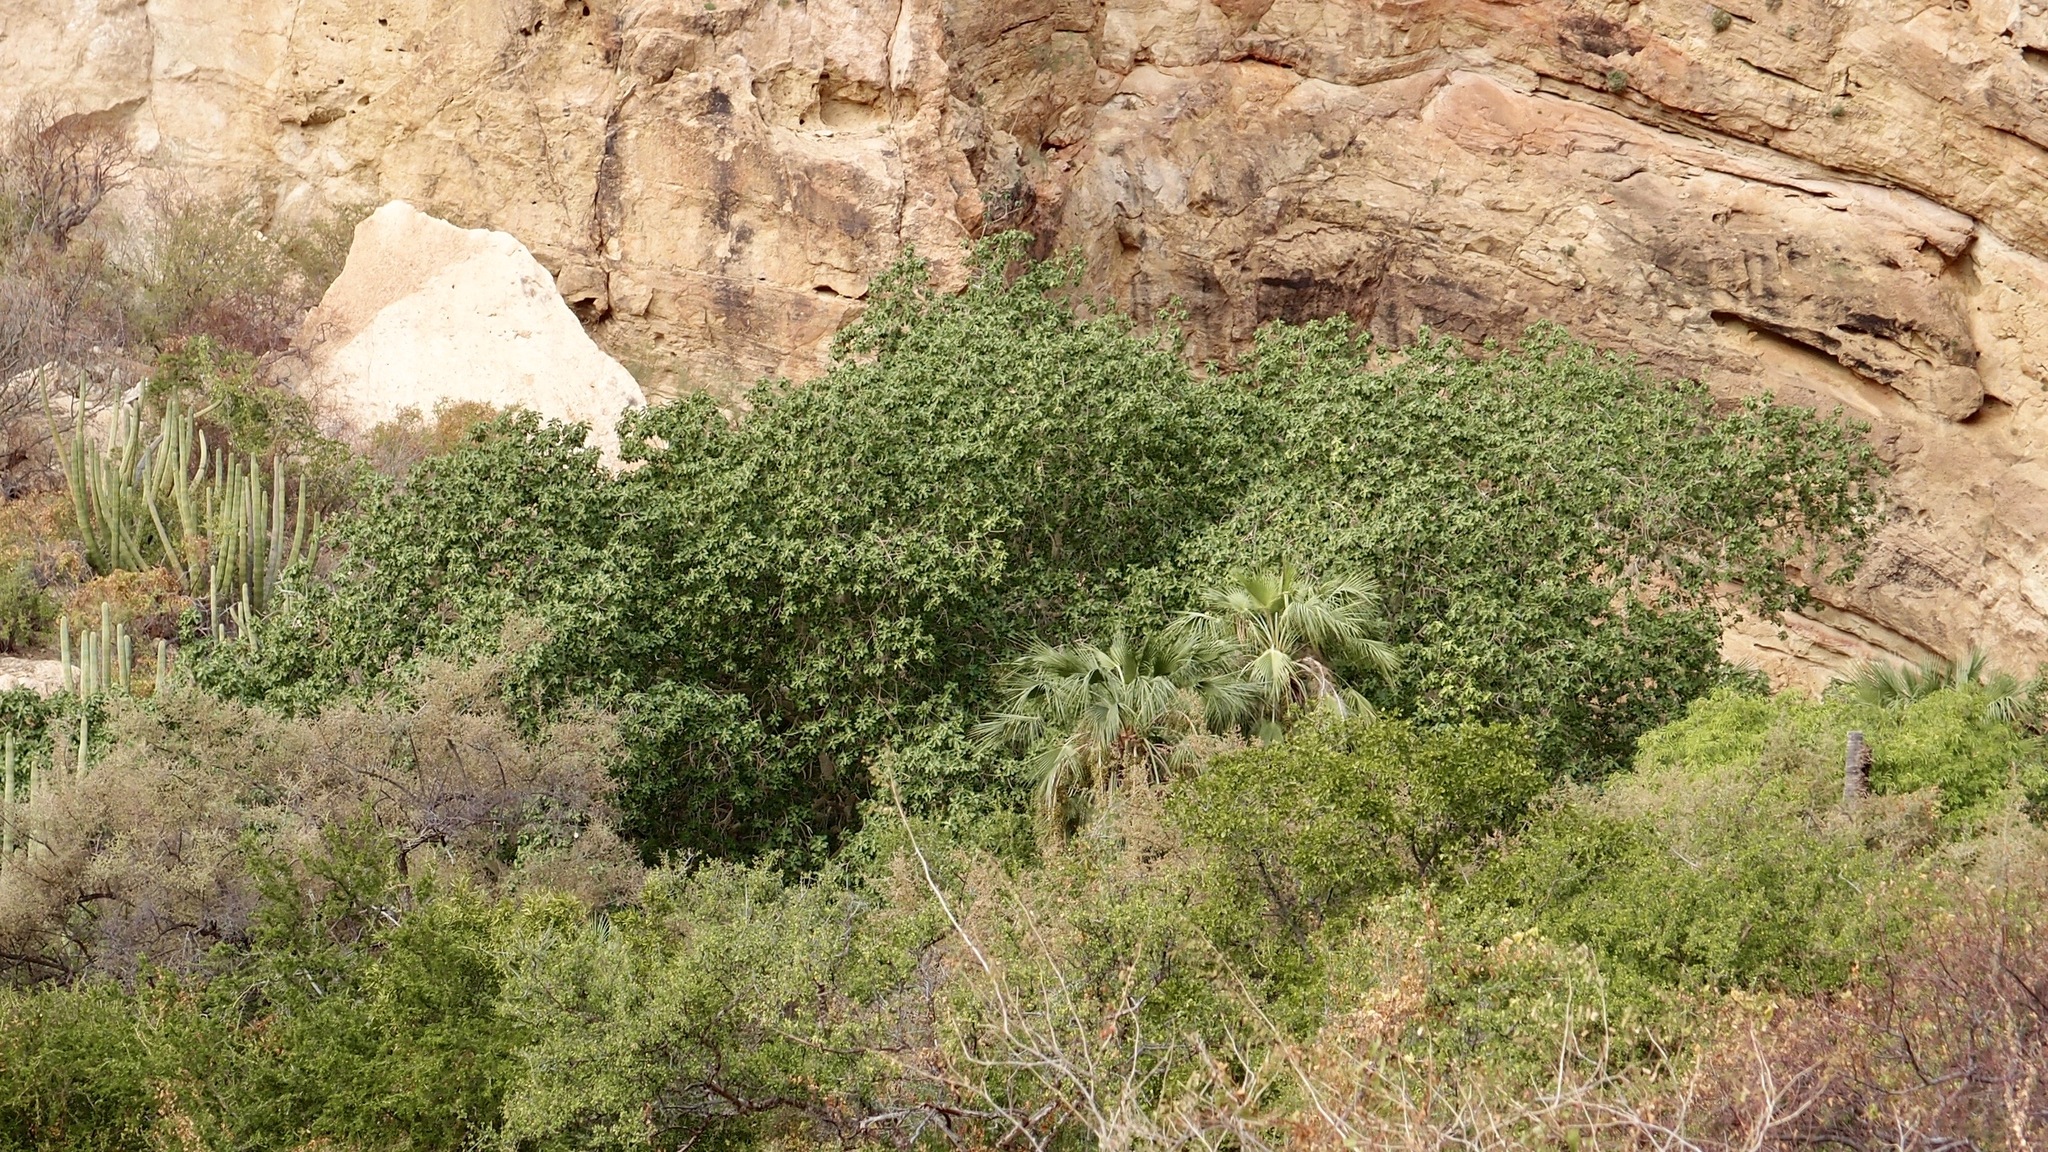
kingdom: Plantae
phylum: Tracheophyta
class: Magnoliopsida
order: Rosales
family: Moraceae
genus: Ficus
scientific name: Ficus petiolaris
